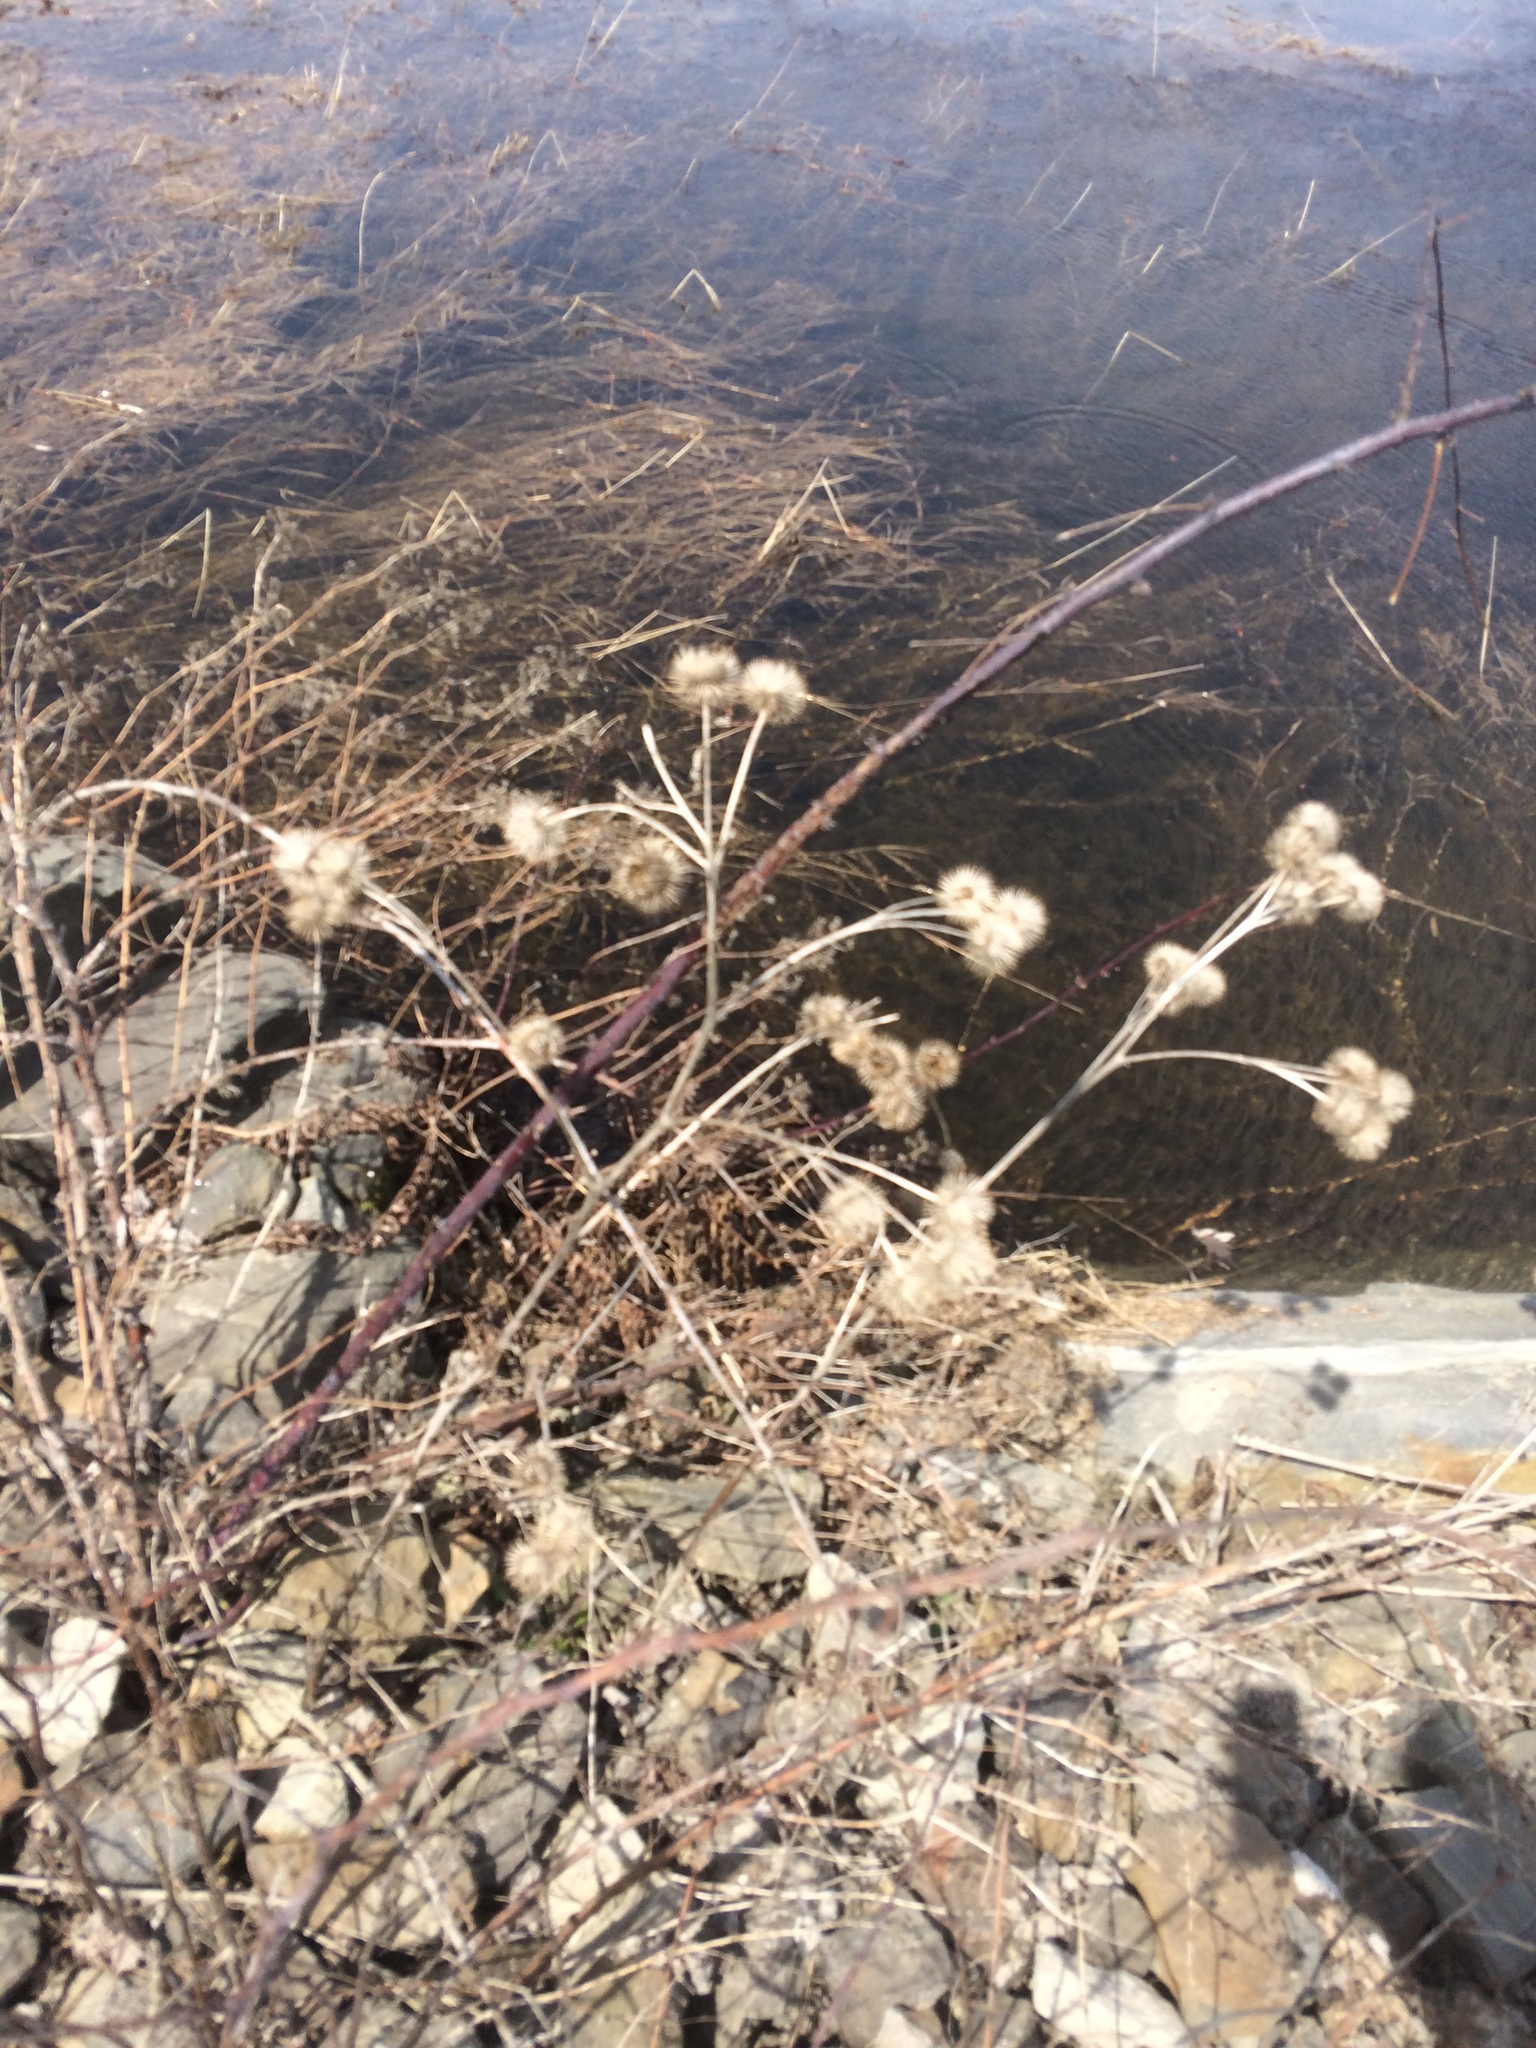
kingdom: Plantae
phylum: Tracheophyta
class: Magnoliopsida
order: Asterales
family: Asteraceae
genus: Arctium
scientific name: Arctium lappa
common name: Greater burdock
